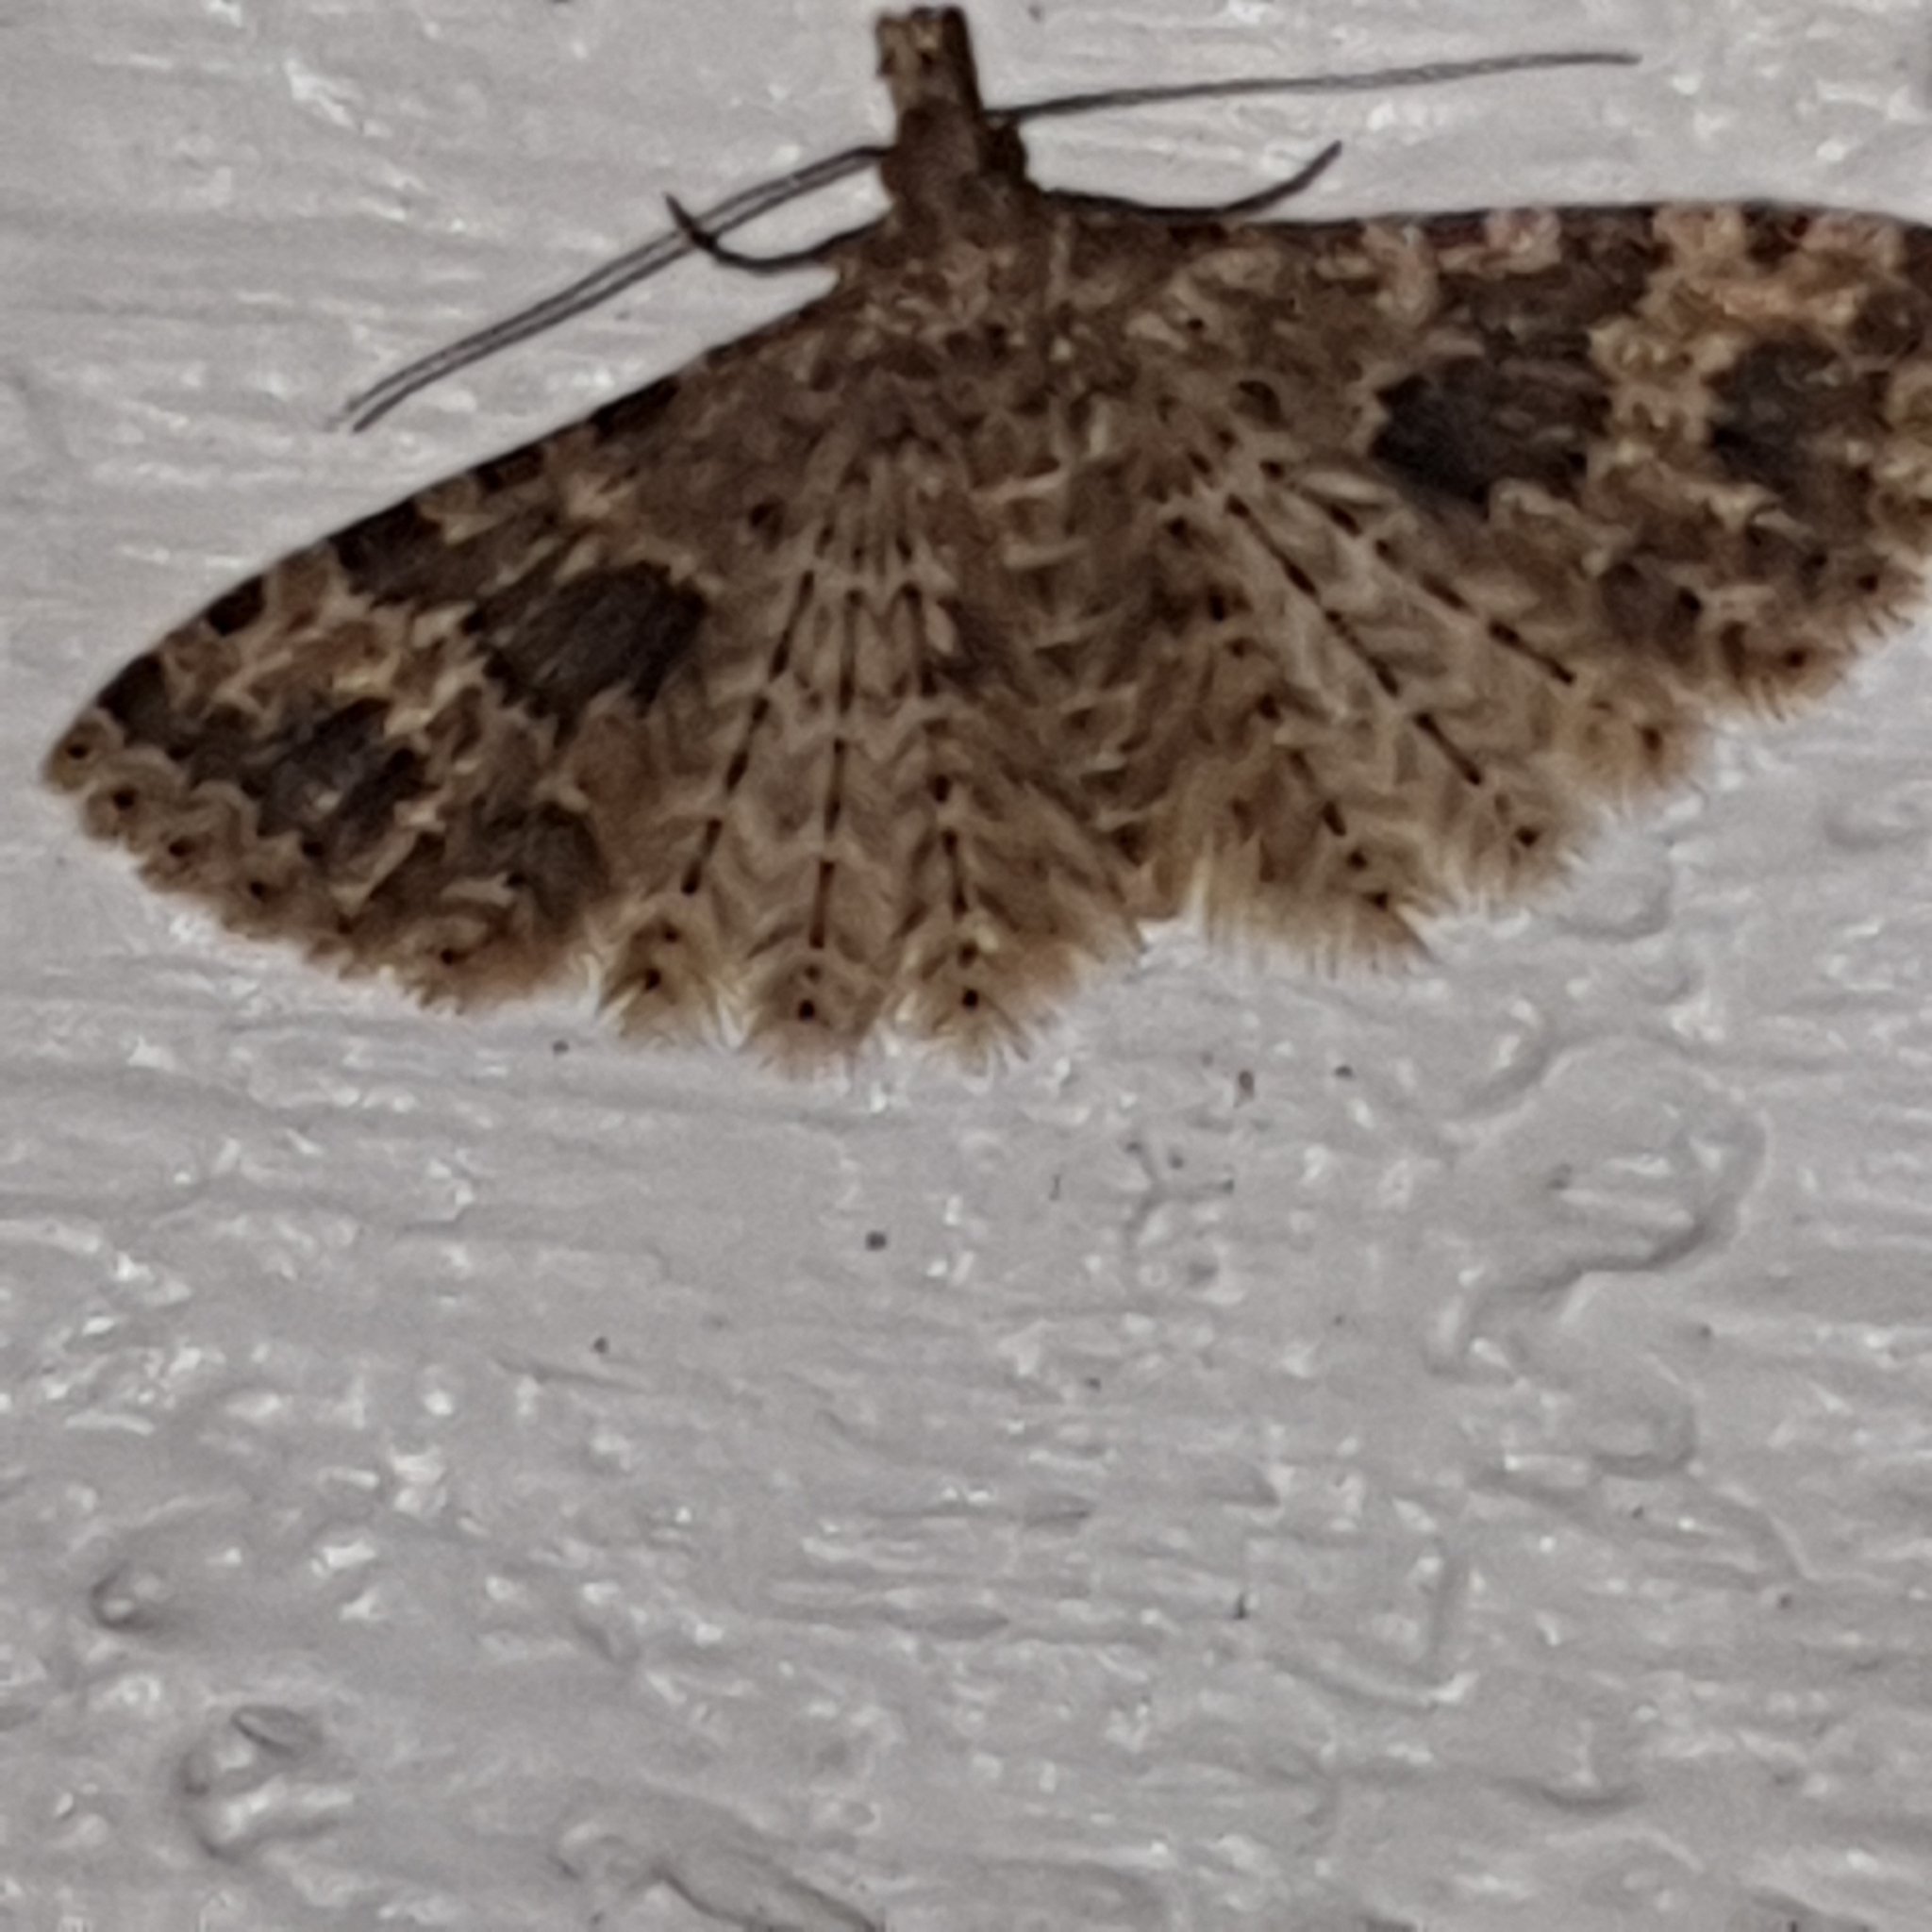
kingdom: Animalia
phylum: Arthropoda
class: Insecta
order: Lepidoptera
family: Alucitidae
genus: Alucita
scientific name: Alucita hexadactyla
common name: Twenty-plume moth
